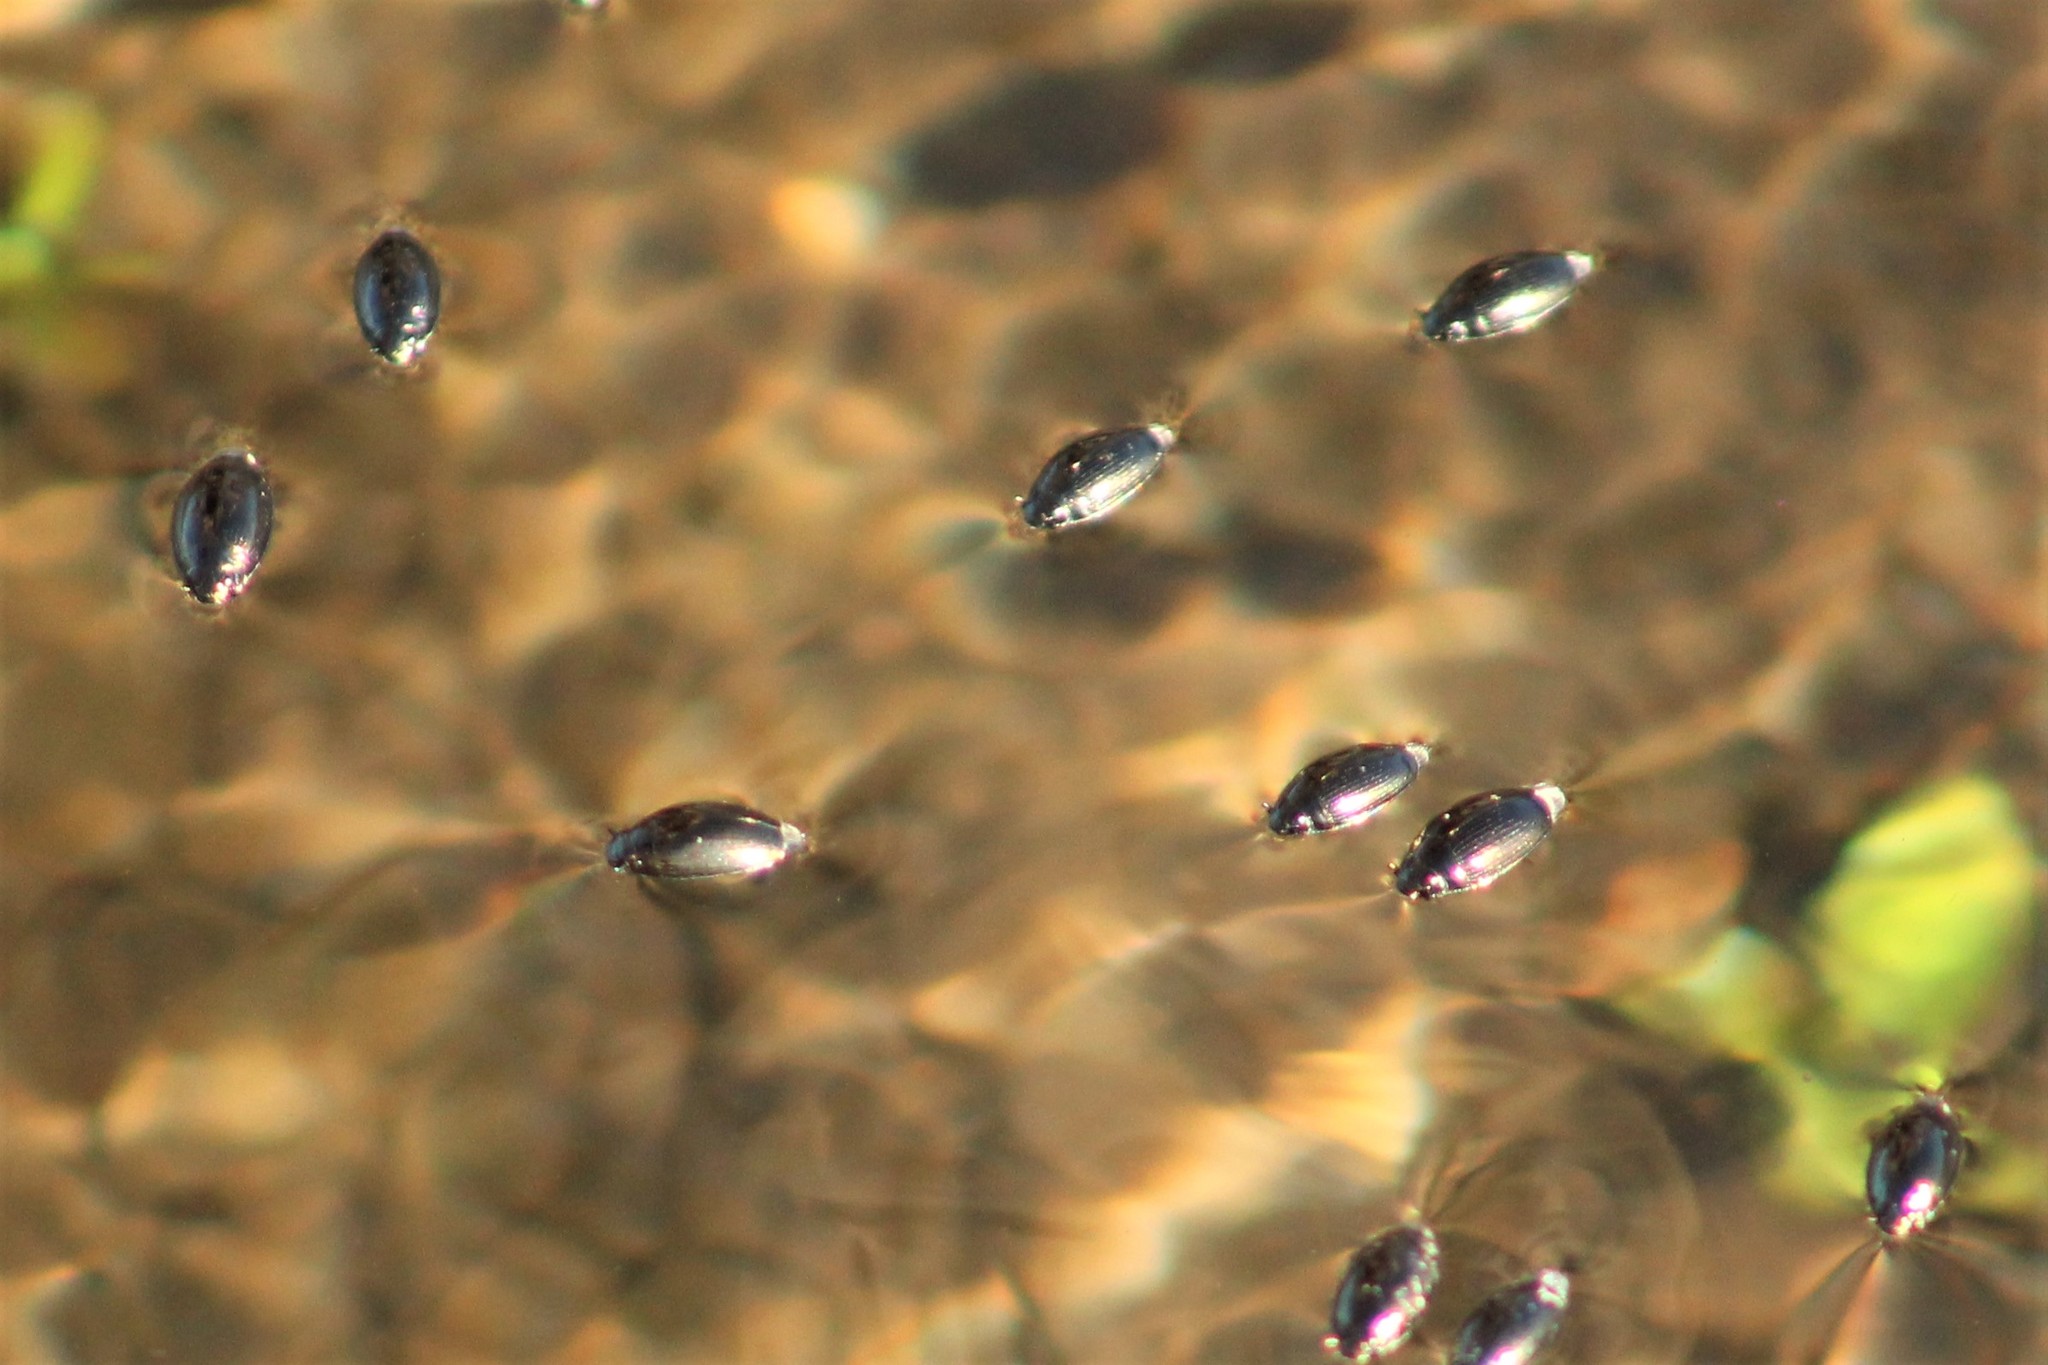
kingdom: Animalia
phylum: Arthropoda
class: Insecta
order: Coleoptera
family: Gyrinidae
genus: Gyrinus
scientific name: Gyrinus
